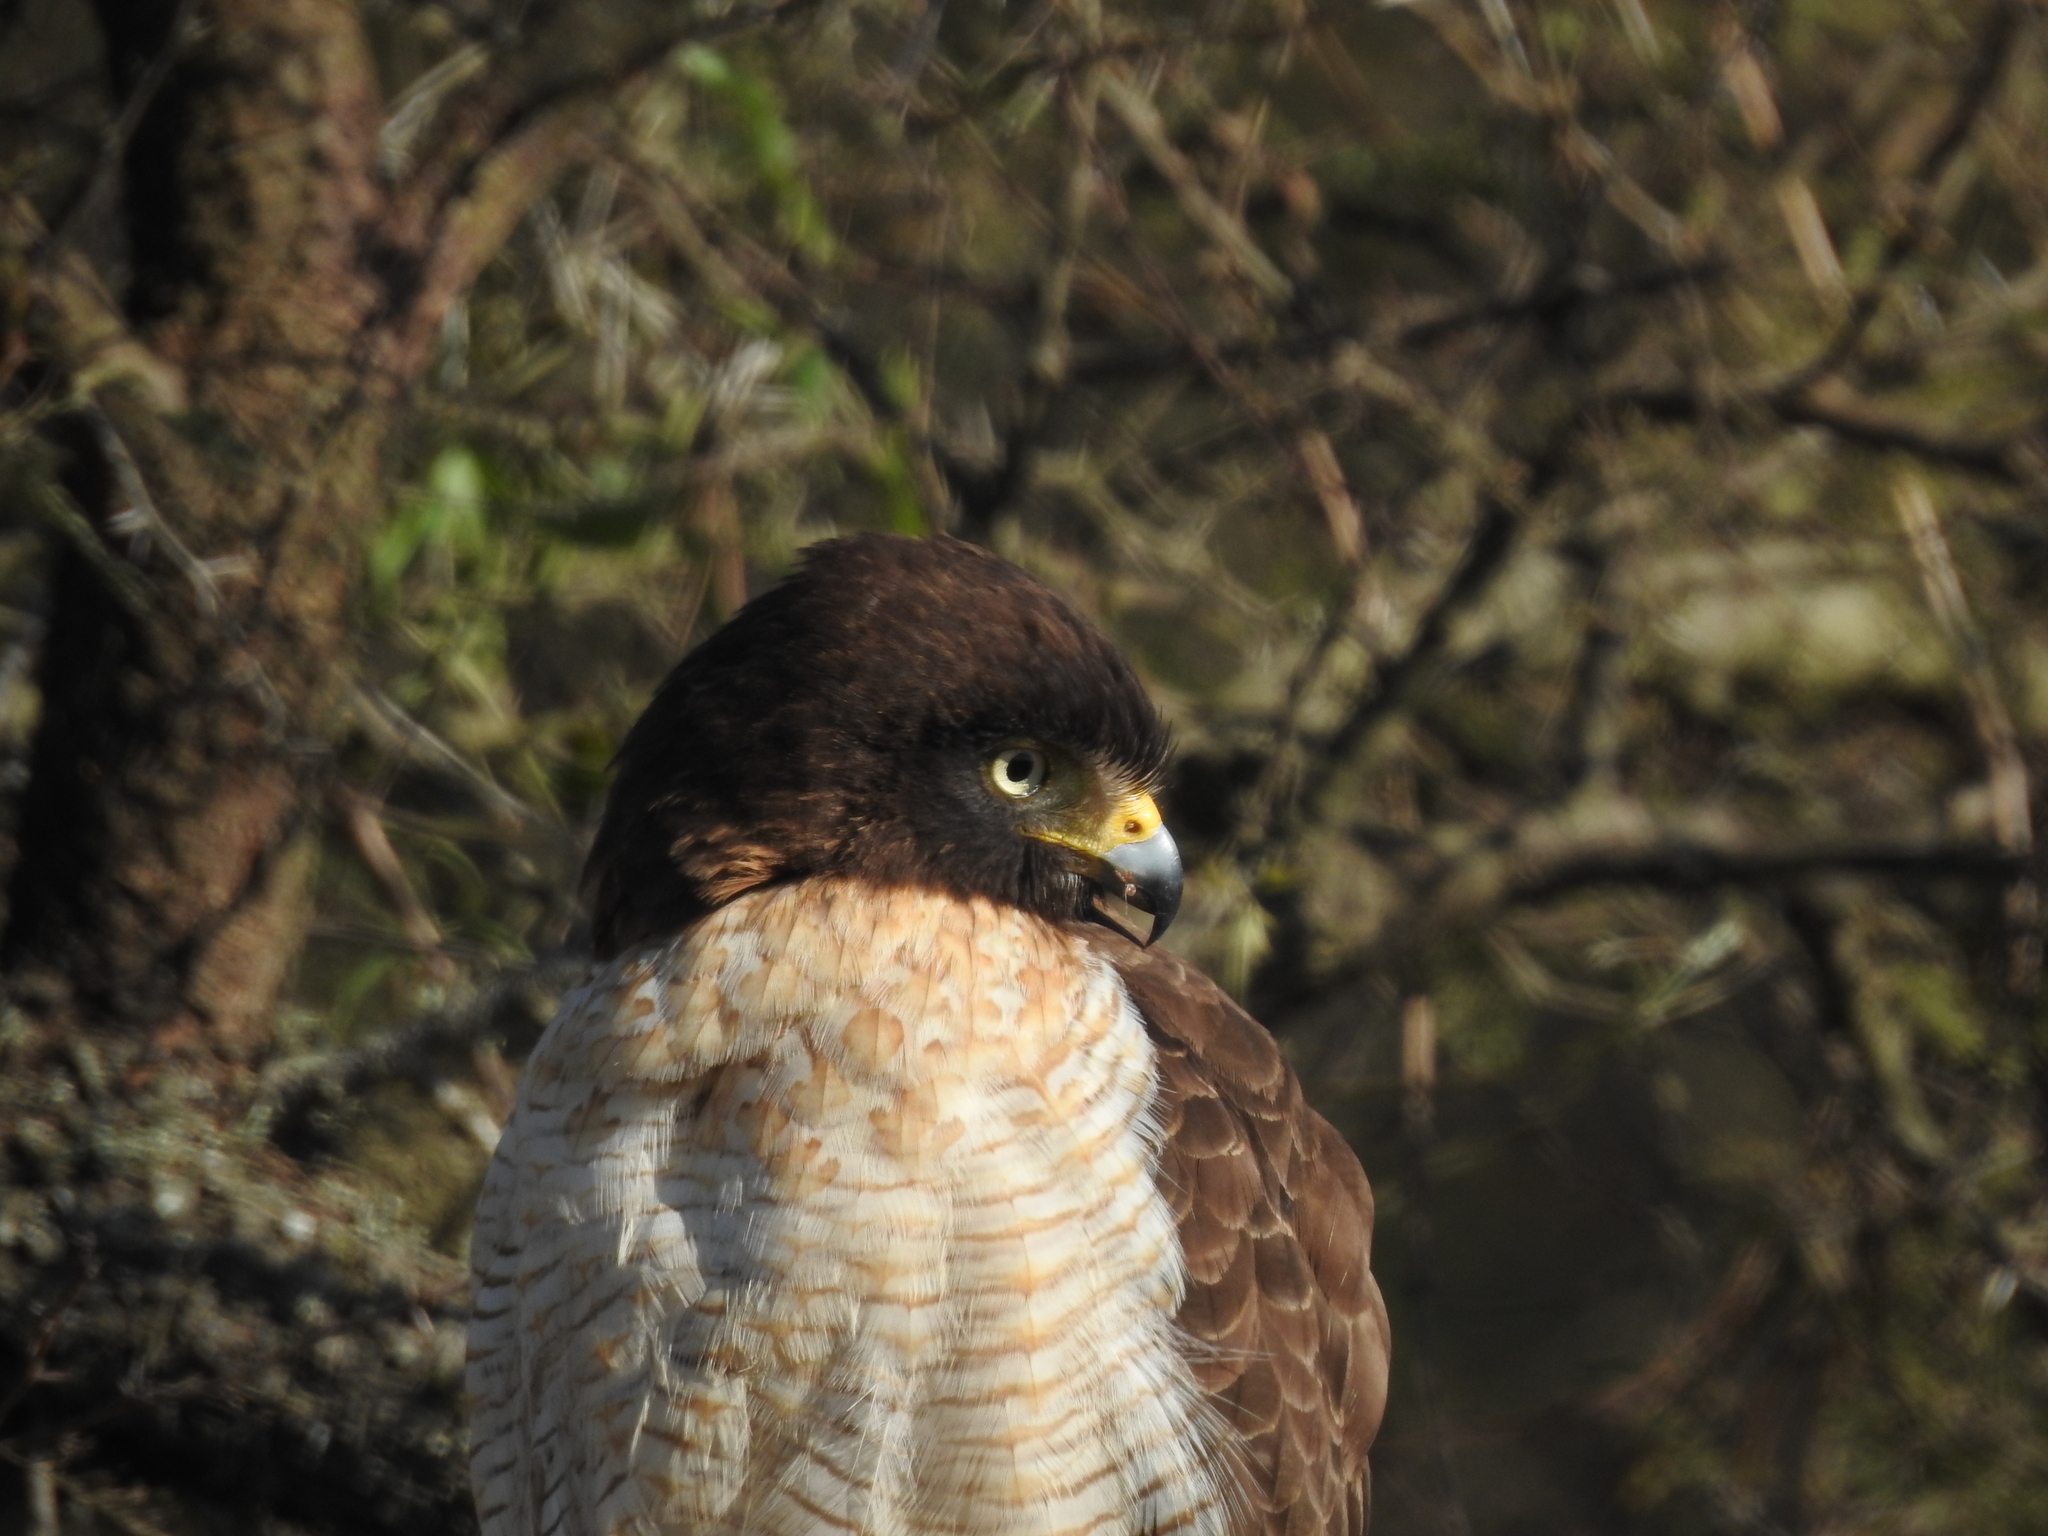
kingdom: Animalia
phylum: Chordata
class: Aves
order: Accipitriformes
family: Accipitridae
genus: Rupornis
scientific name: Rupornis magnirostris
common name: Roadside hawk
